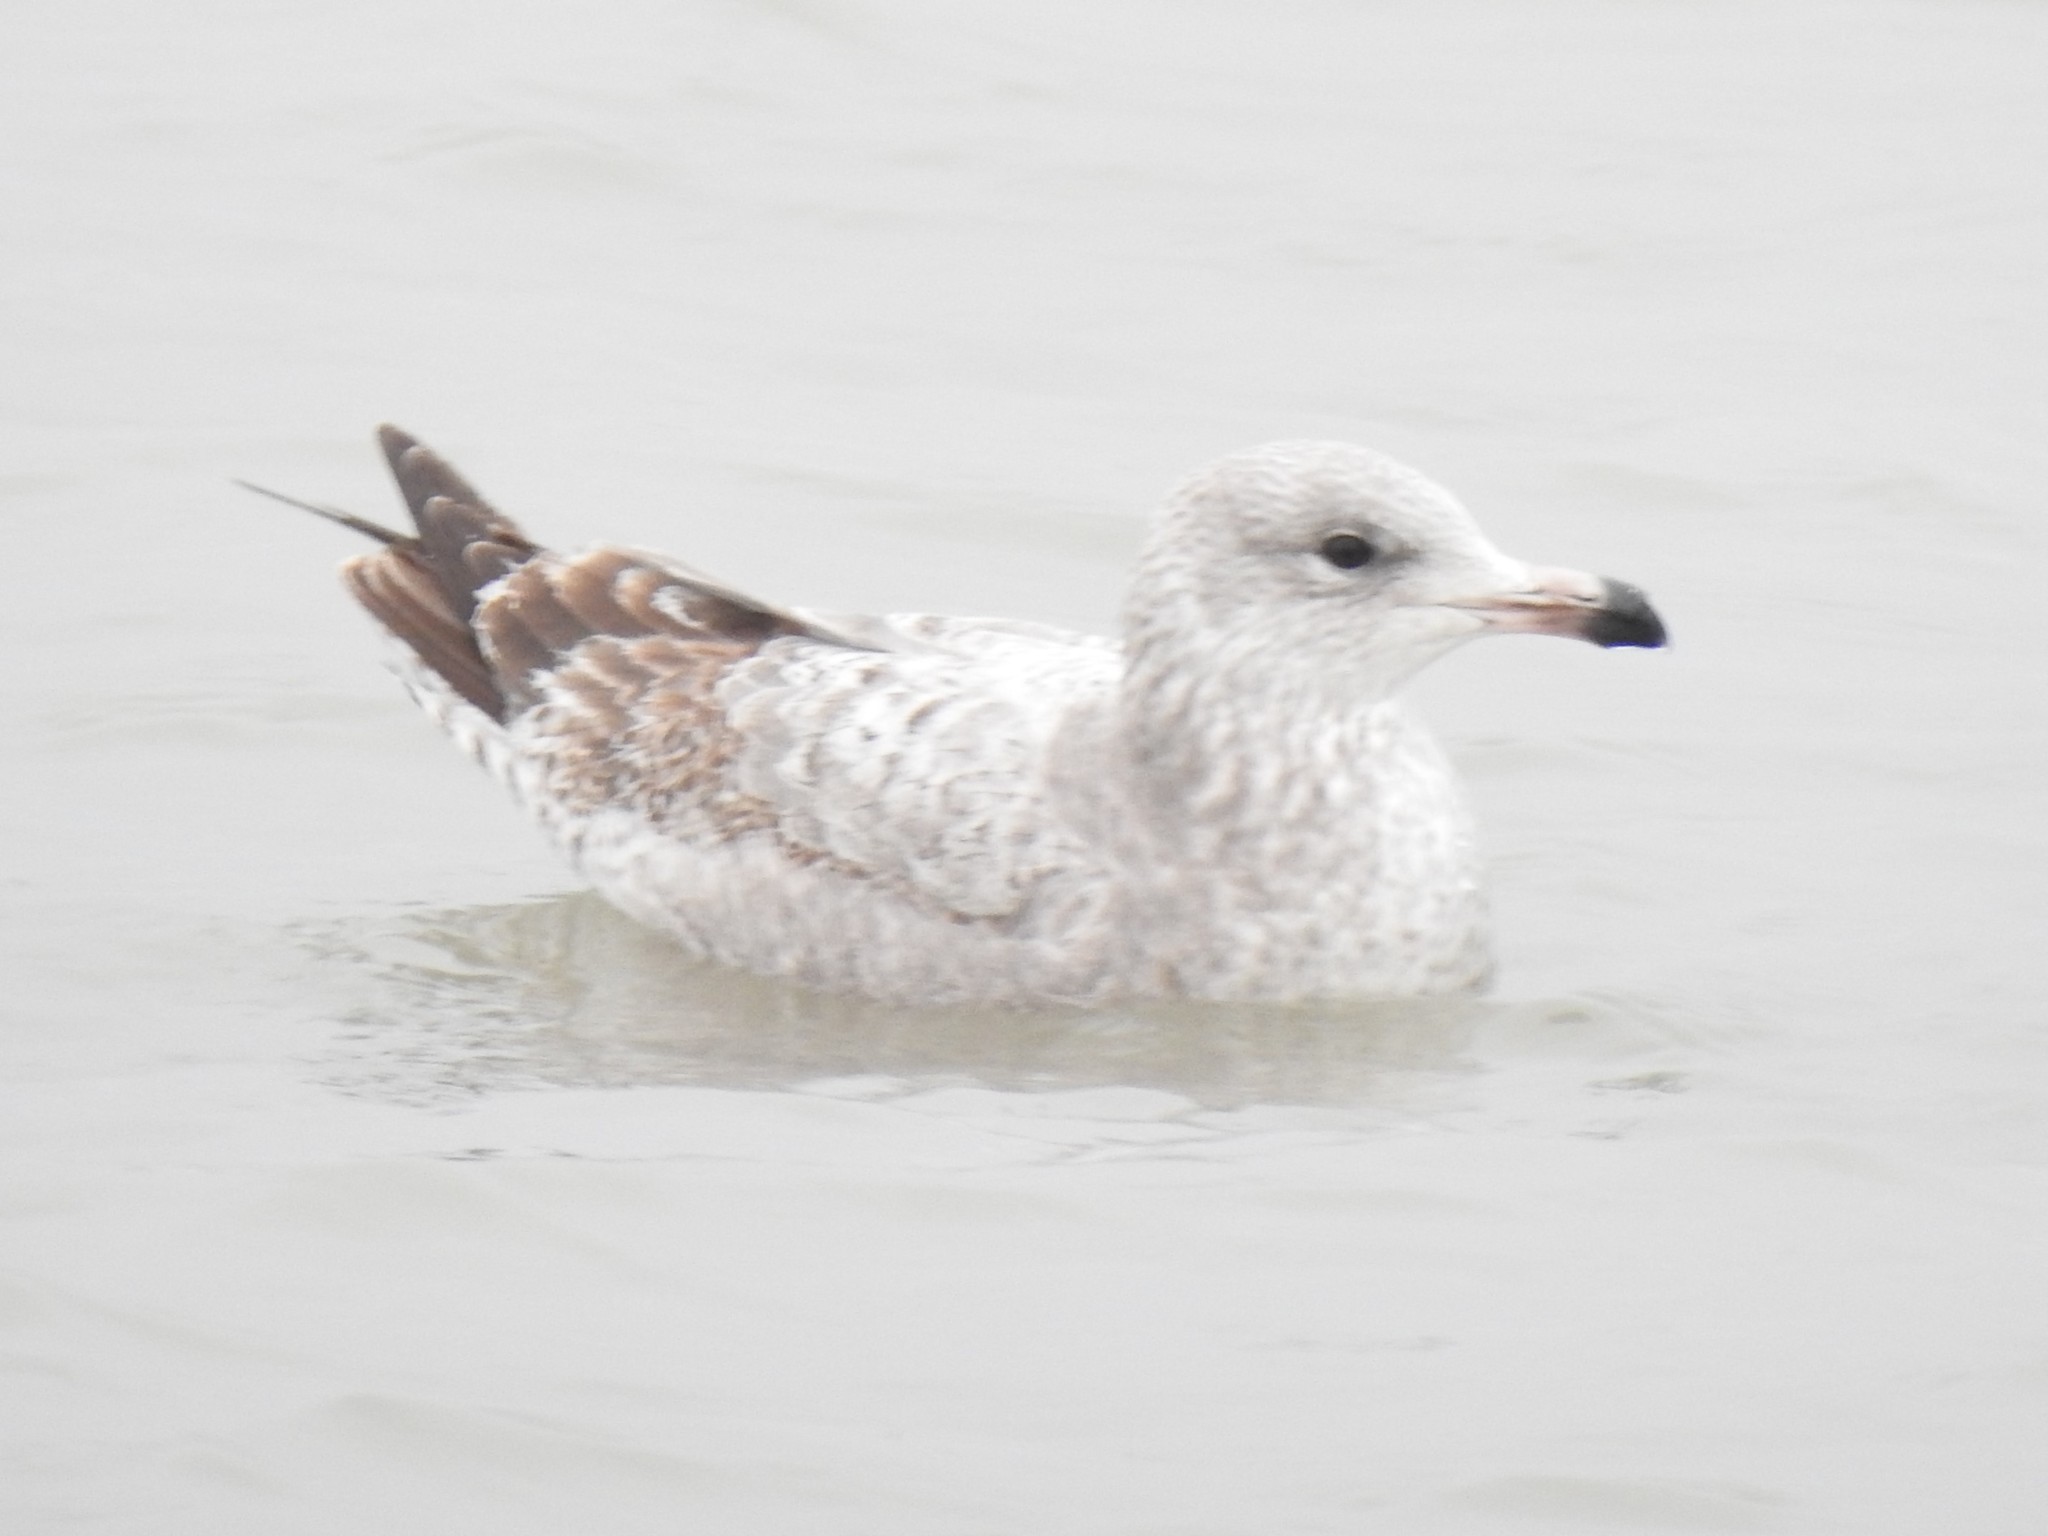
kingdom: Animalia
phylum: Chordata
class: Aves
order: Charadriiformes
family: Laridae
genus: Larus
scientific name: Larus argentatus
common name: Herring gull
